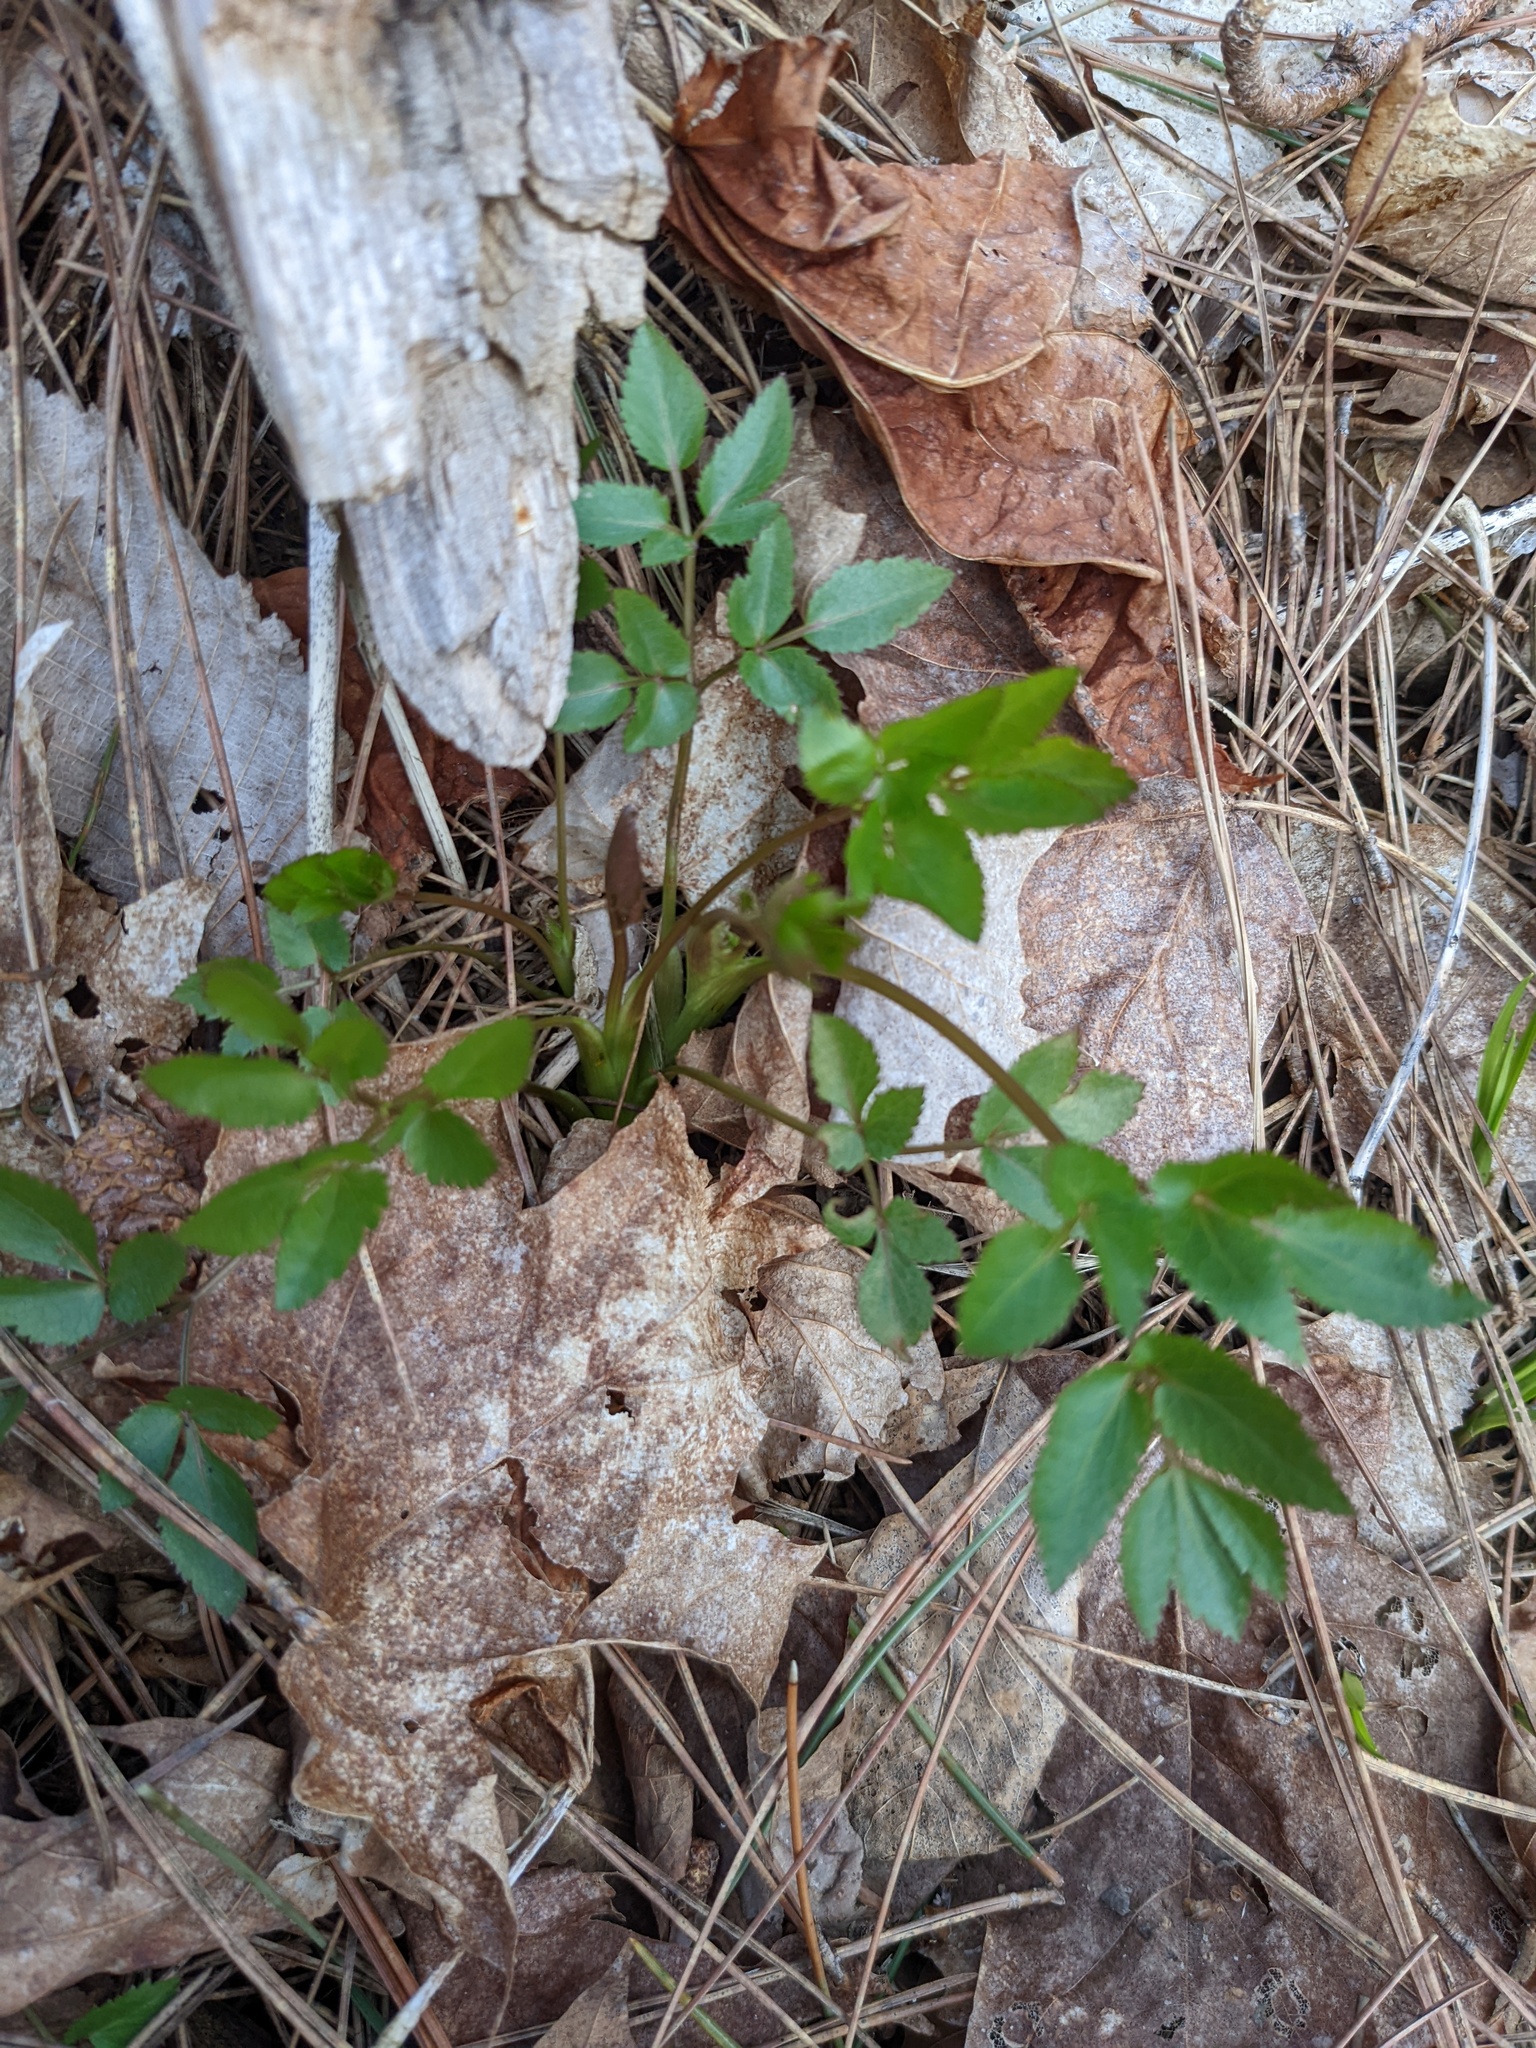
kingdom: Plantae
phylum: Tracheophyta
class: Magnoliopsida
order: Apiales
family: Apiaceae
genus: Zizia
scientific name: Zizia aurea
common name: Golden alexanders
